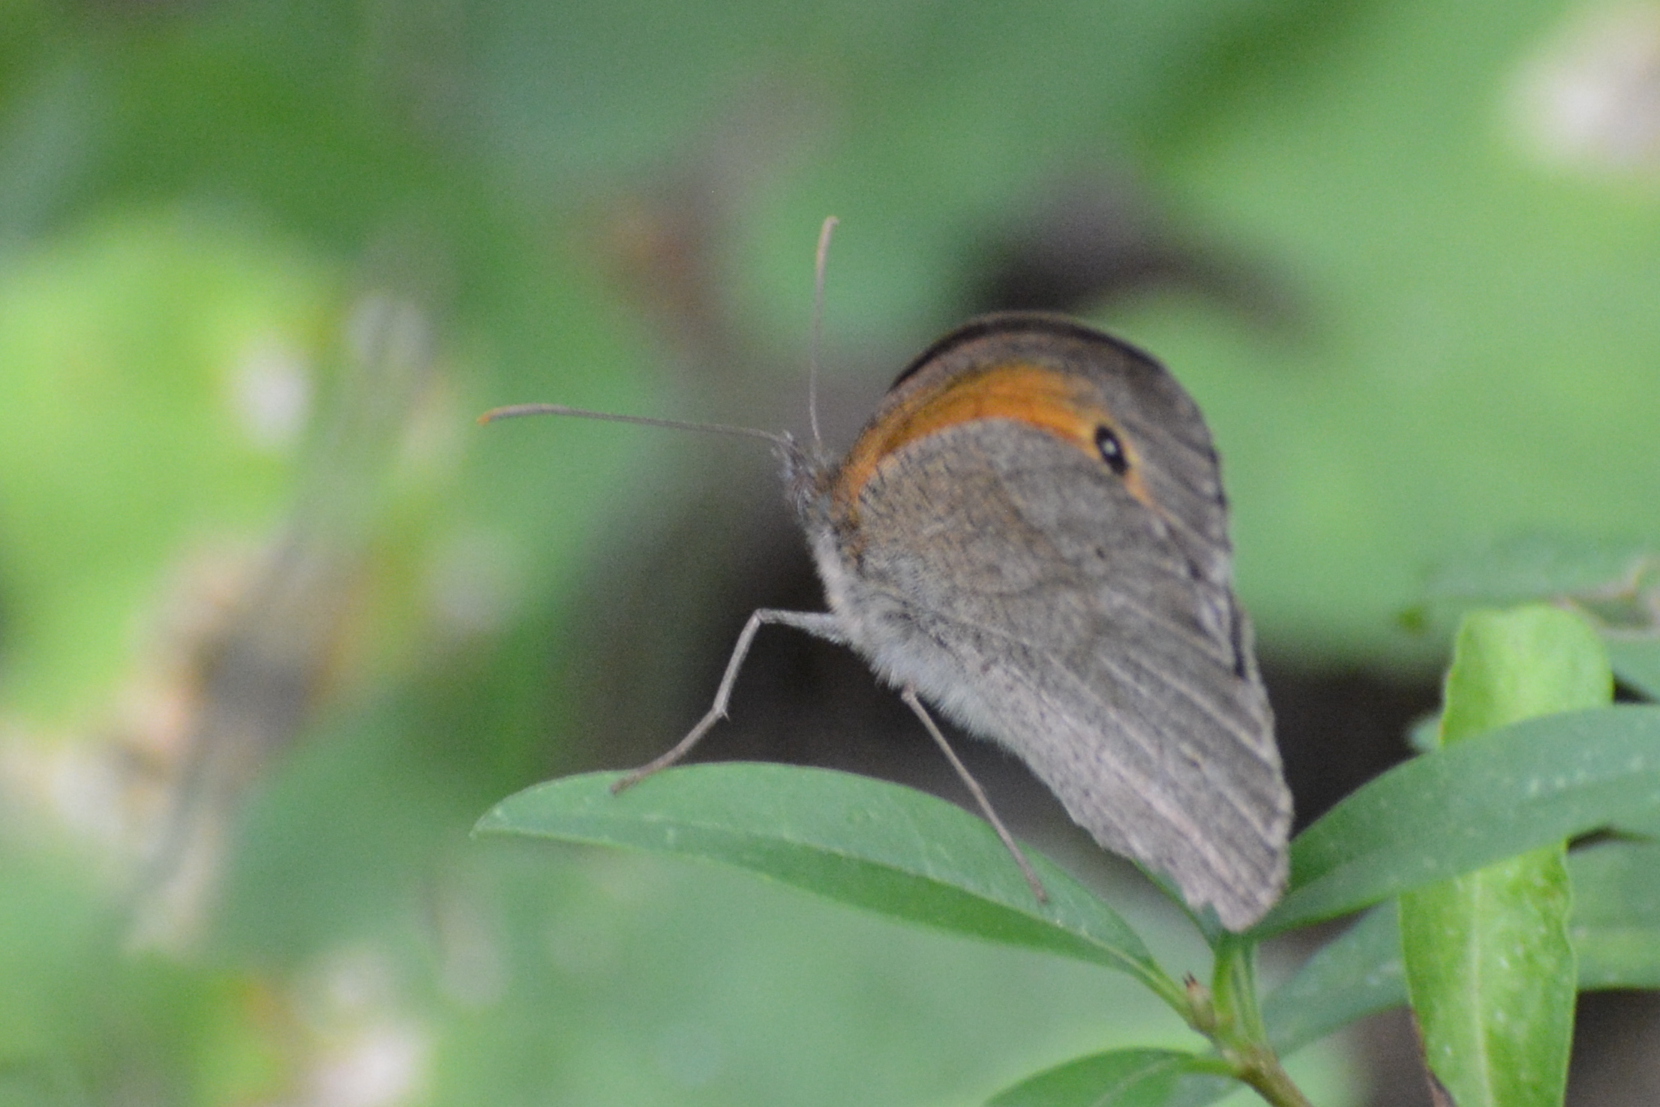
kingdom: Animalia
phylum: Arthropoda
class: Insecta
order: Lepidoptera
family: Nymphalidae
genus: Maniola
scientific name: Maniola jurtina
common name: Meadow brown
